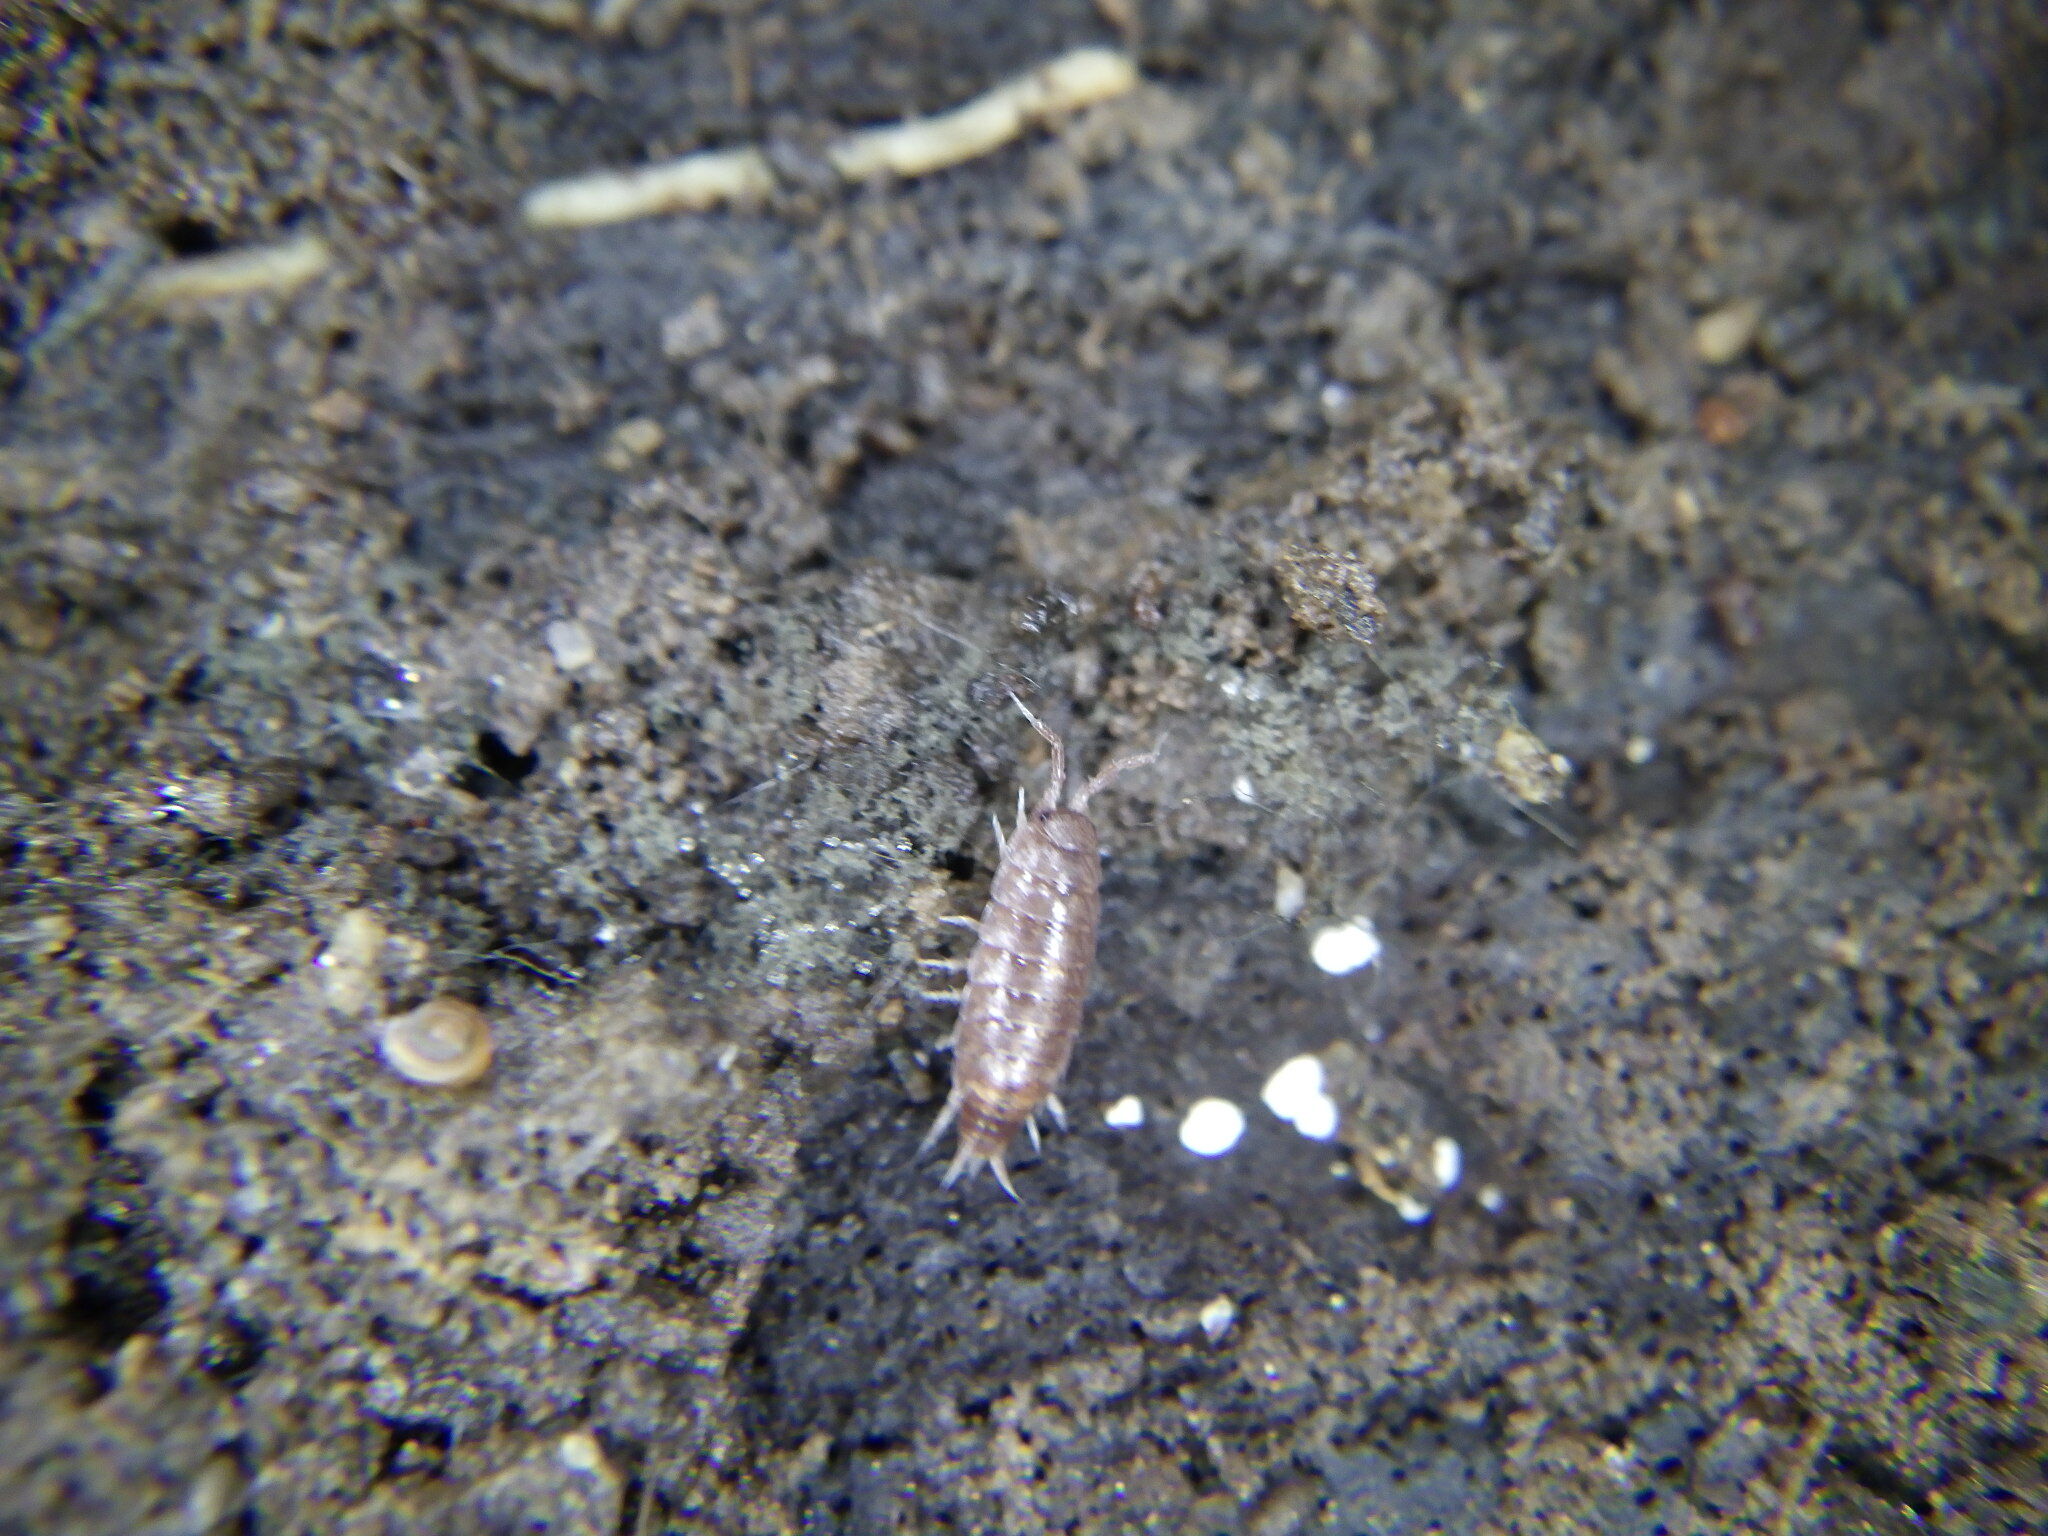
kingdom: Animalia
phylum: Arthropoda
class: Malacostraca
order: Isopoda
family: Trichoniscidae
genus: Hyloniscus
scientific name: Hyloniscus riparius
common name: Isopod
